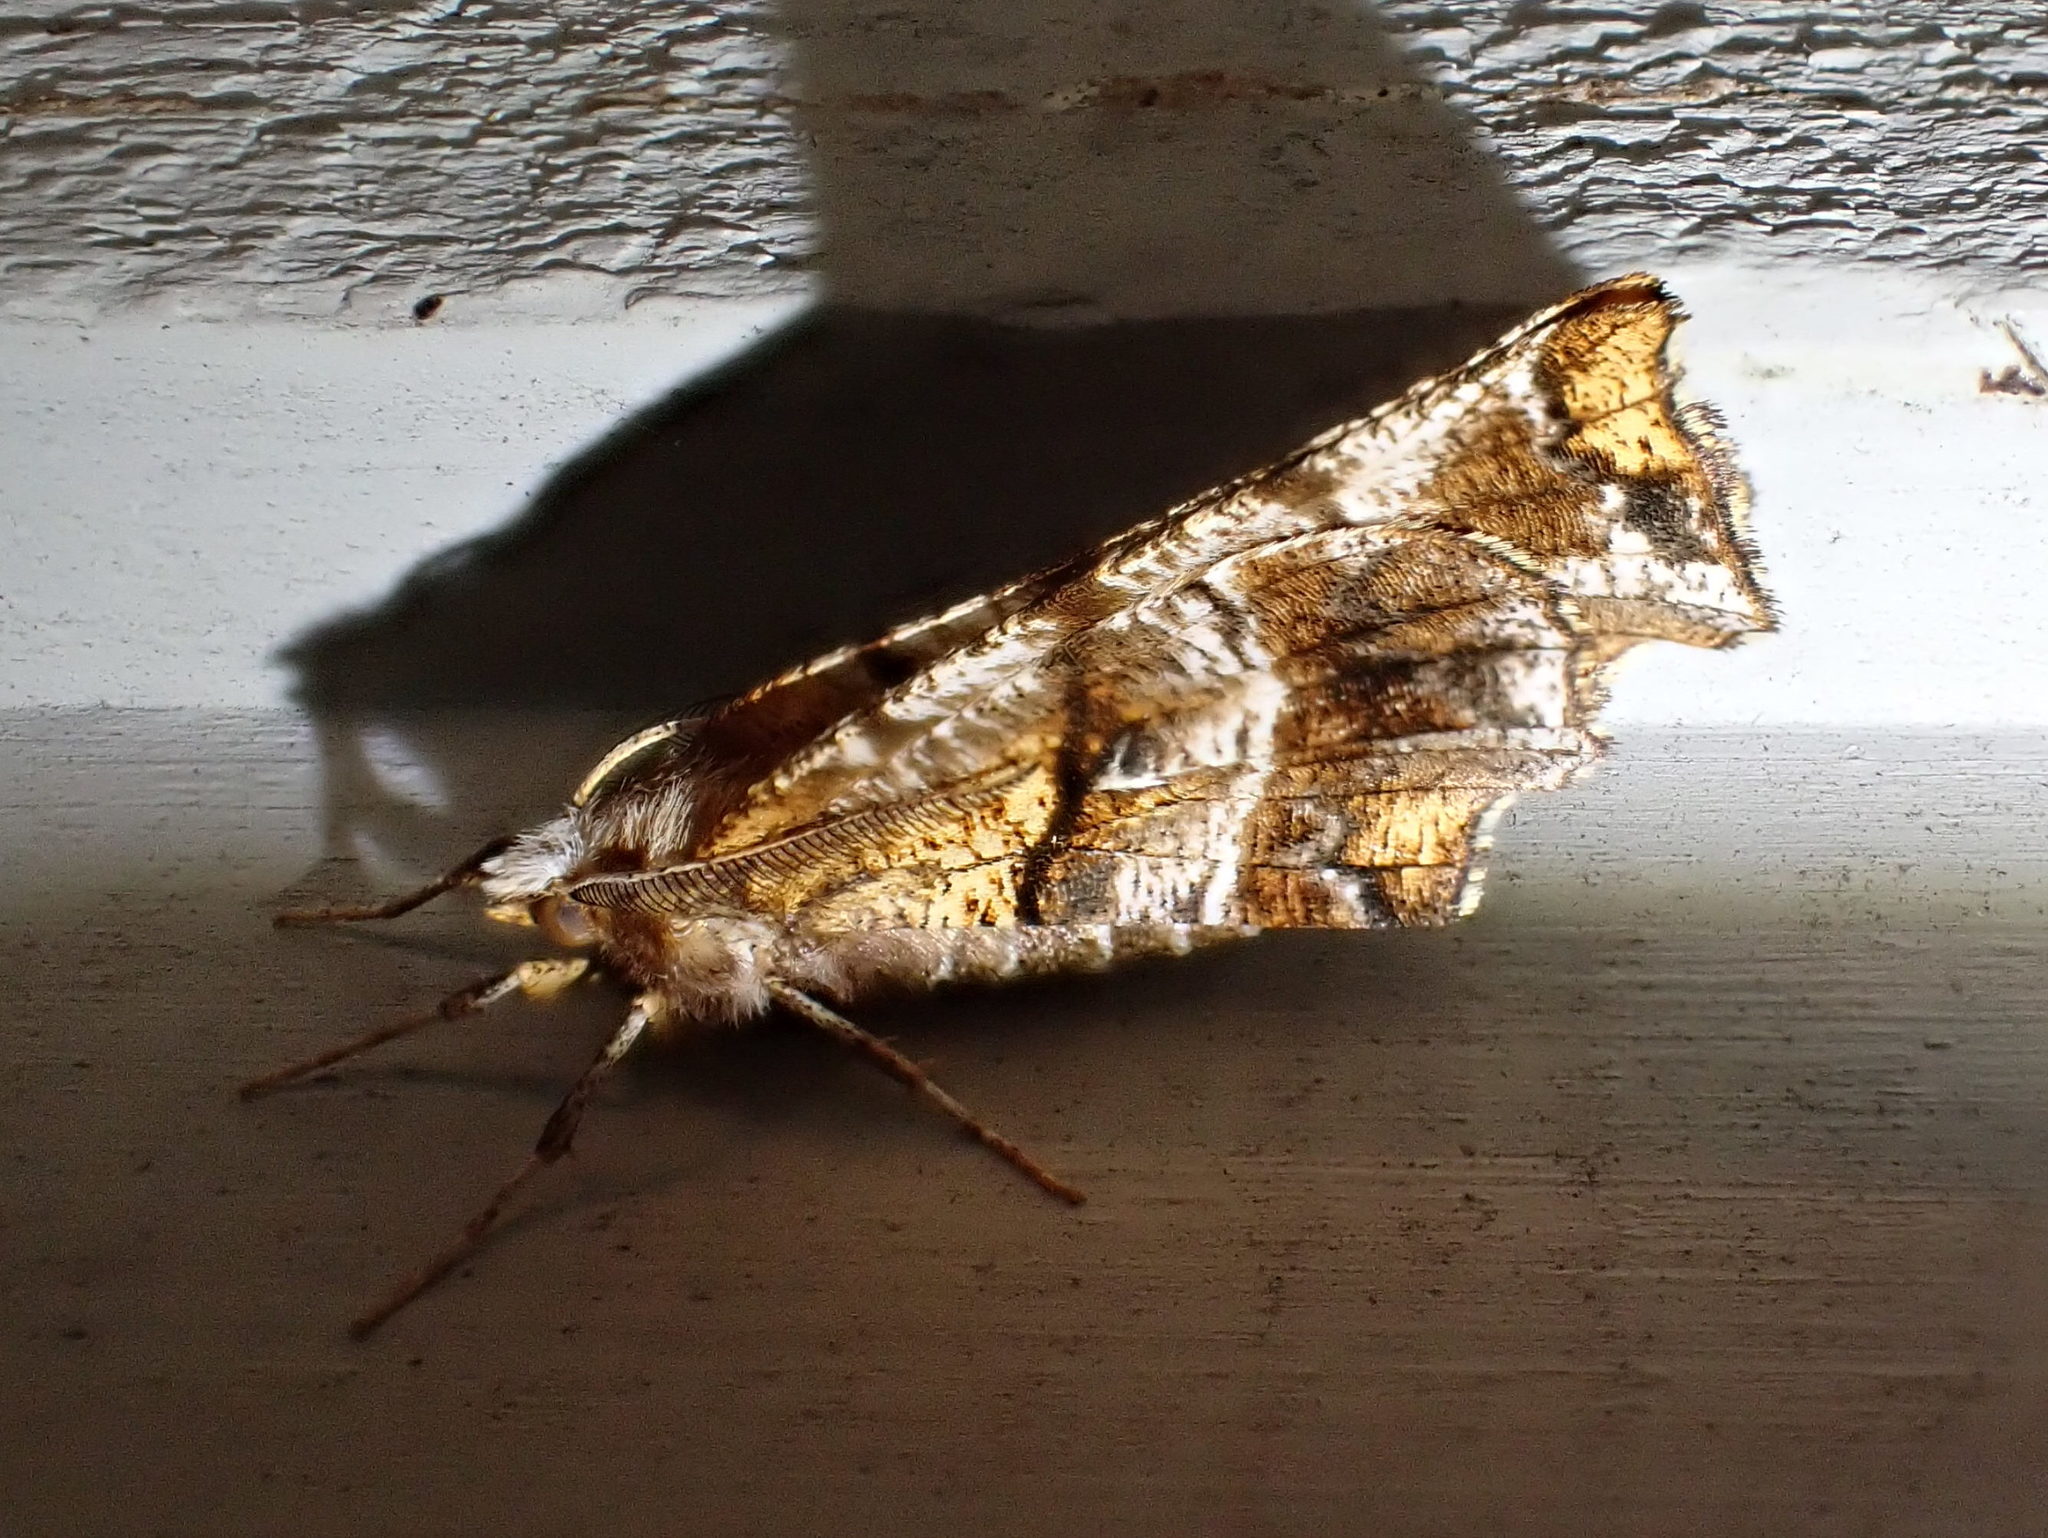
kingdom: Animalia
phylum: Arthropoda
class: Insecta
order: Lepidoptera
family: Geometridae
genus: Selenia
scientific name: Selenia alciphearia
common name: Brown-tipped thorn
